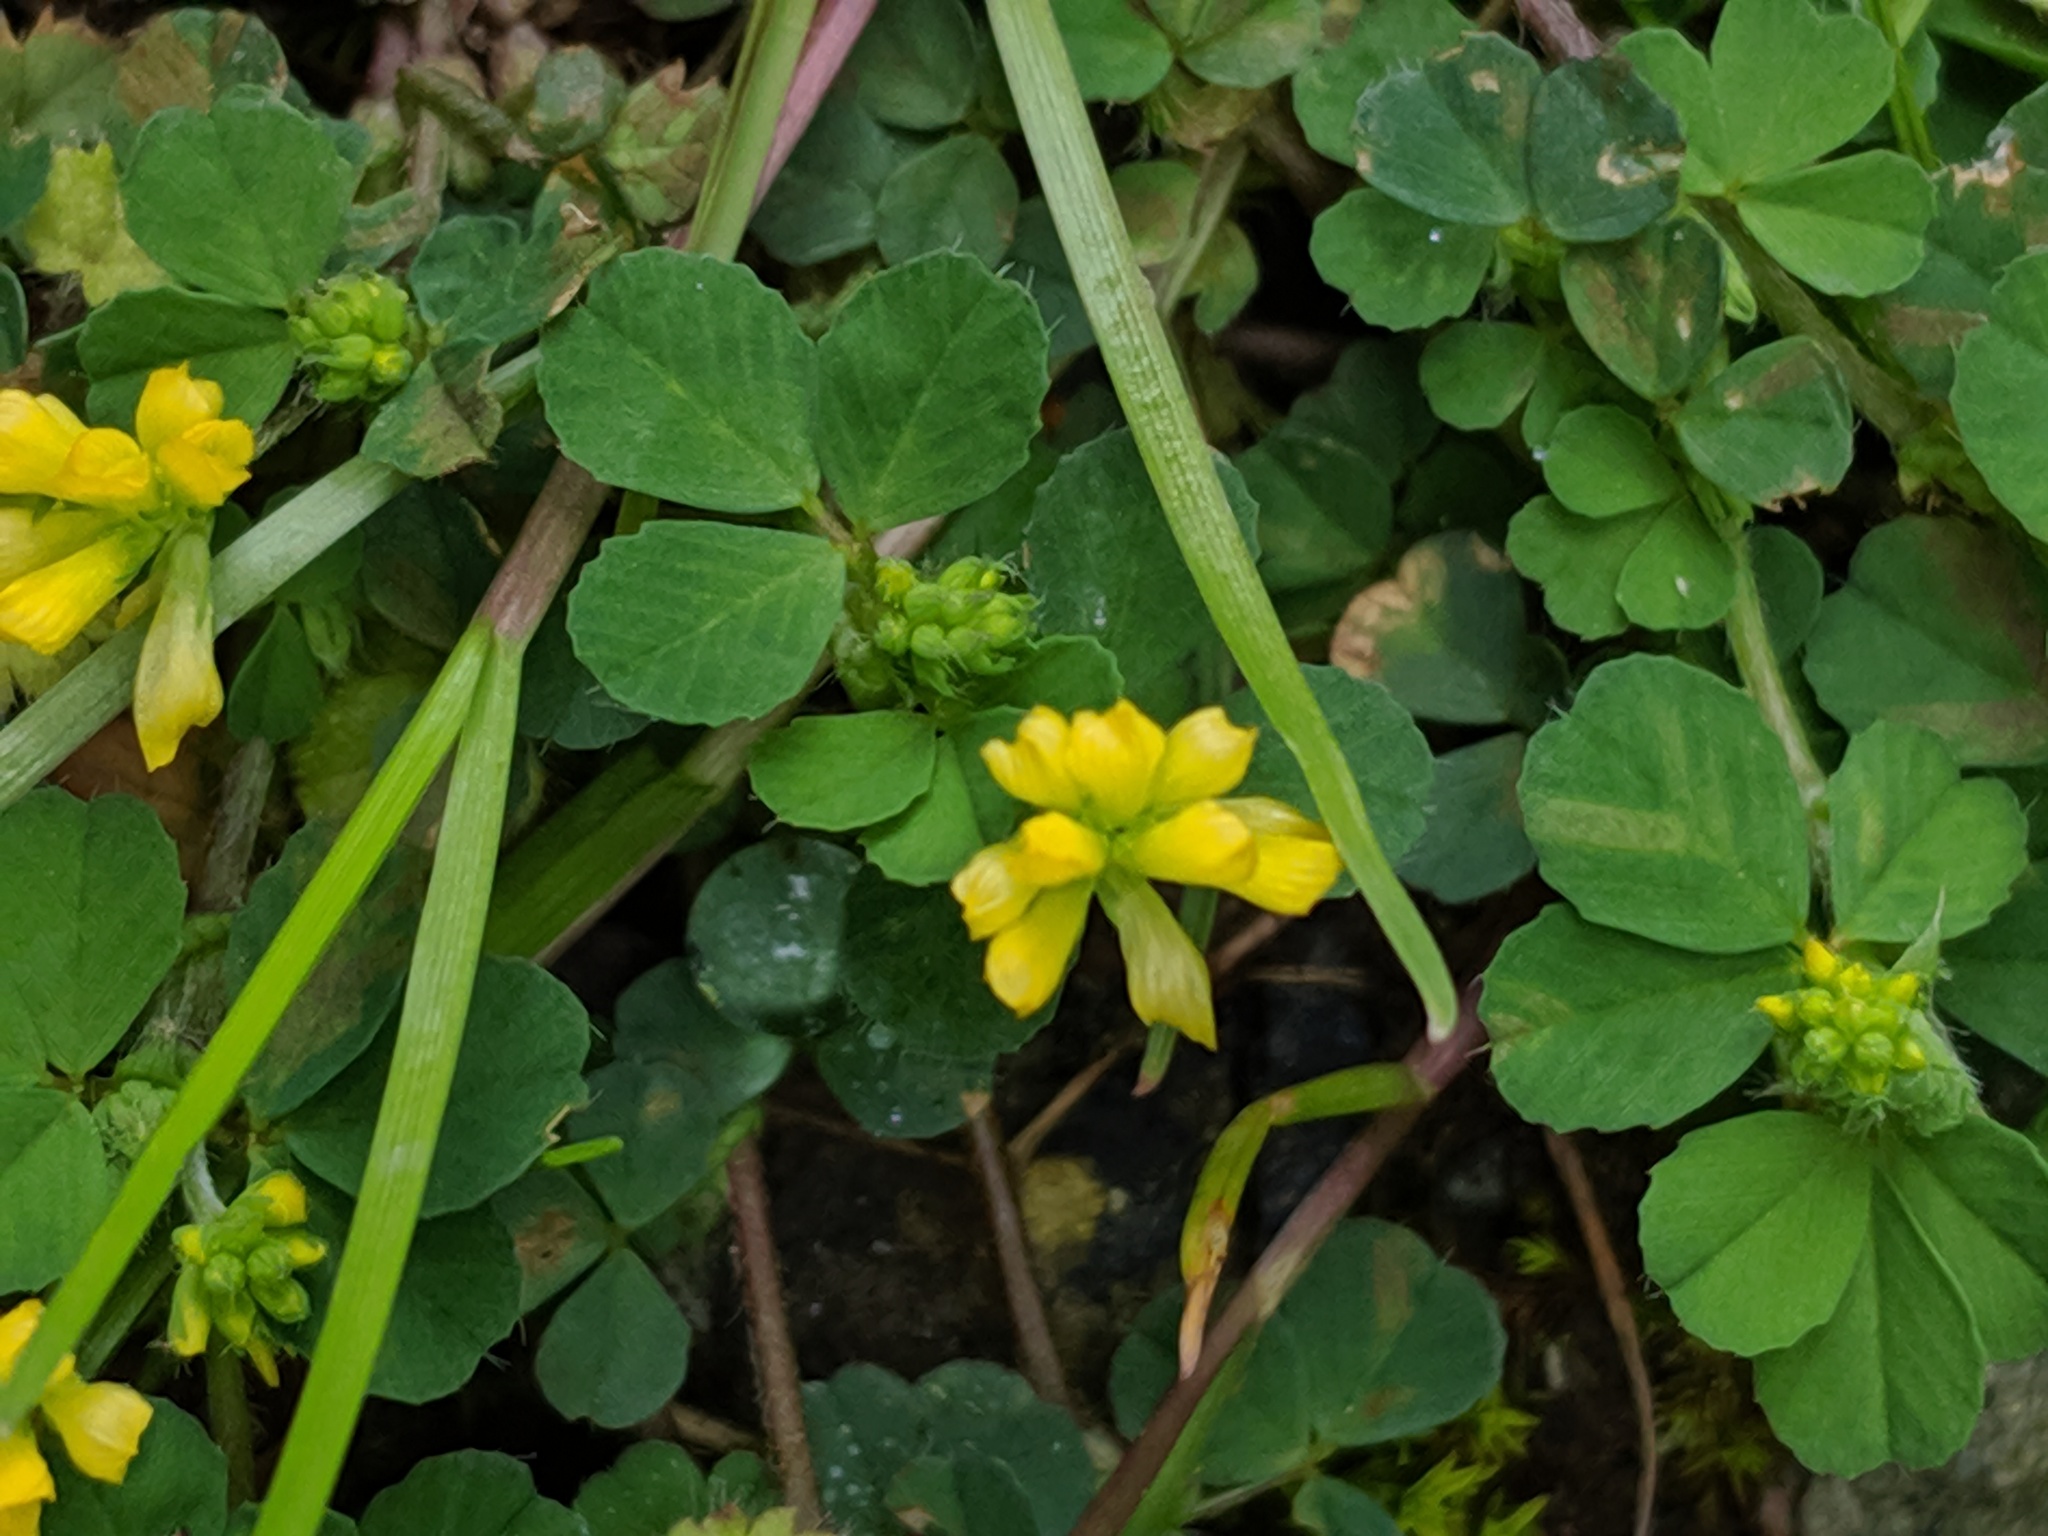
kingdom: Plantae
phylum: Tracheophyta
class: Magnoliopsida
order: Fabales
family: Fabaceae
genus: Trifolium
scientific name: Trifolium dubium
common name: Suckling clover
